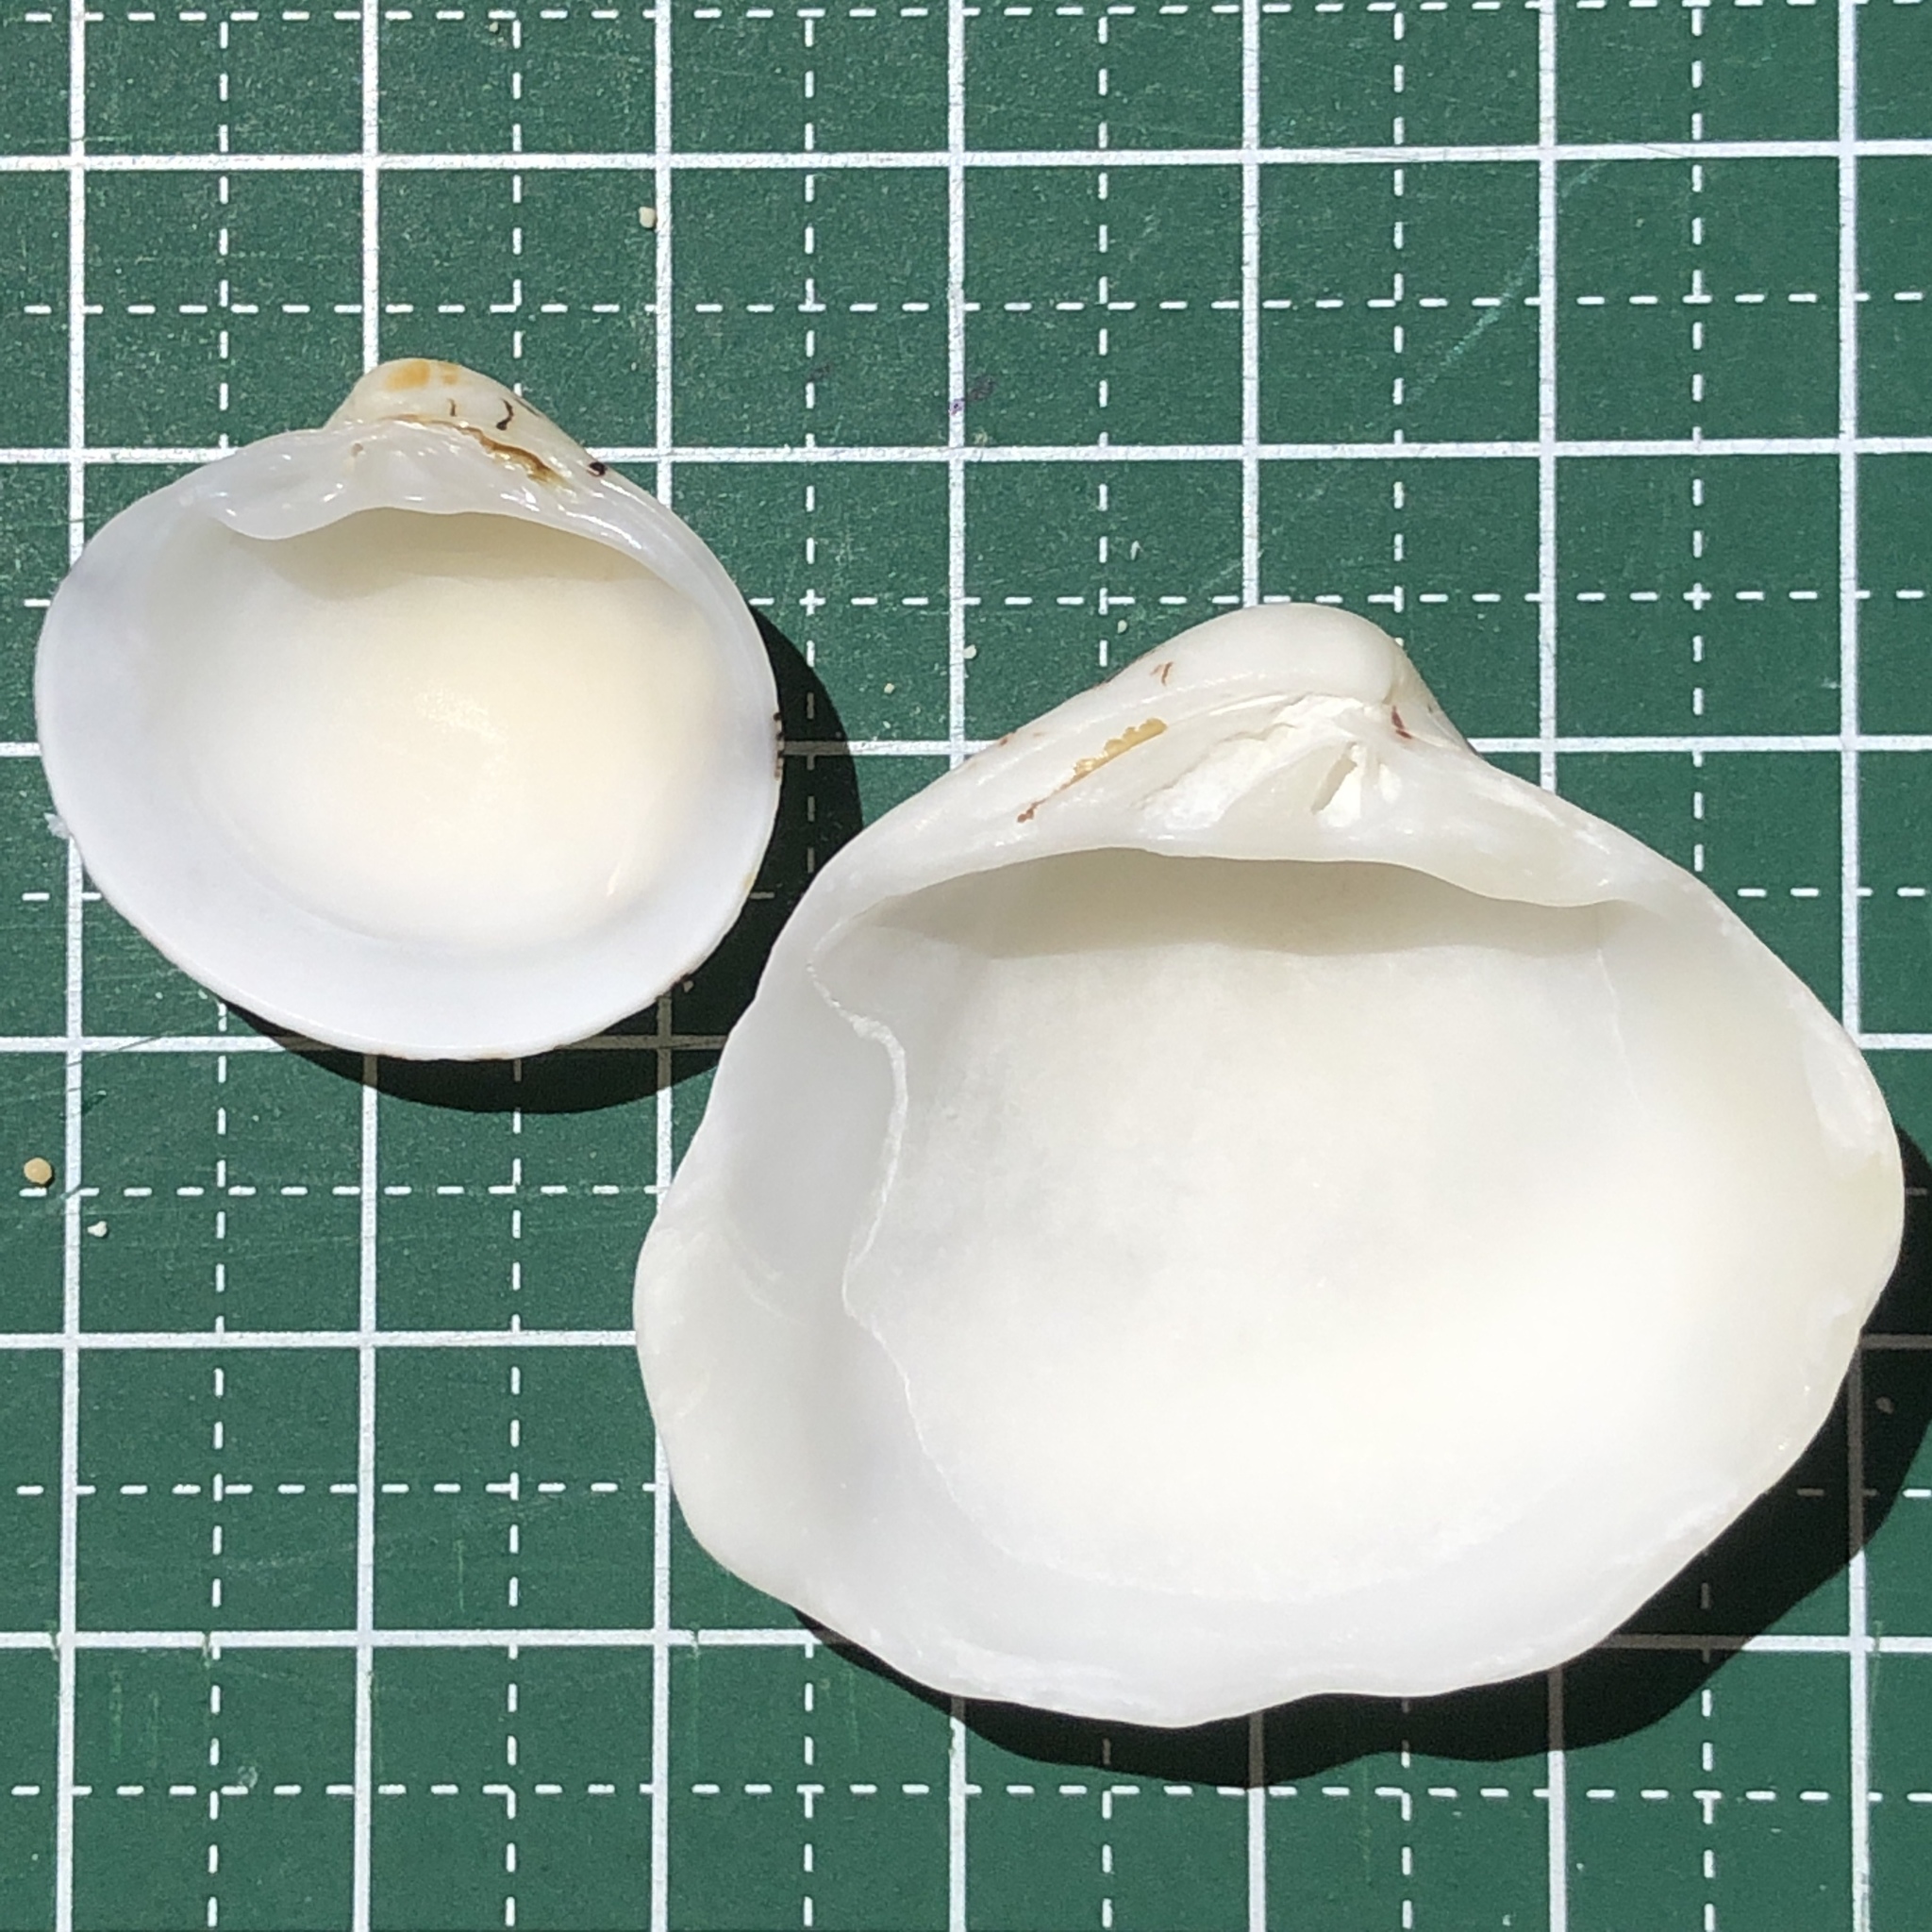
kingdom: Animalia
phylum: Mollusca
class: Bivalvia
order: Venerida
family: Veneridae
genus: Lioconcha
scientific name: Lioconcha castrensis
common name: Camp pitar-venus
